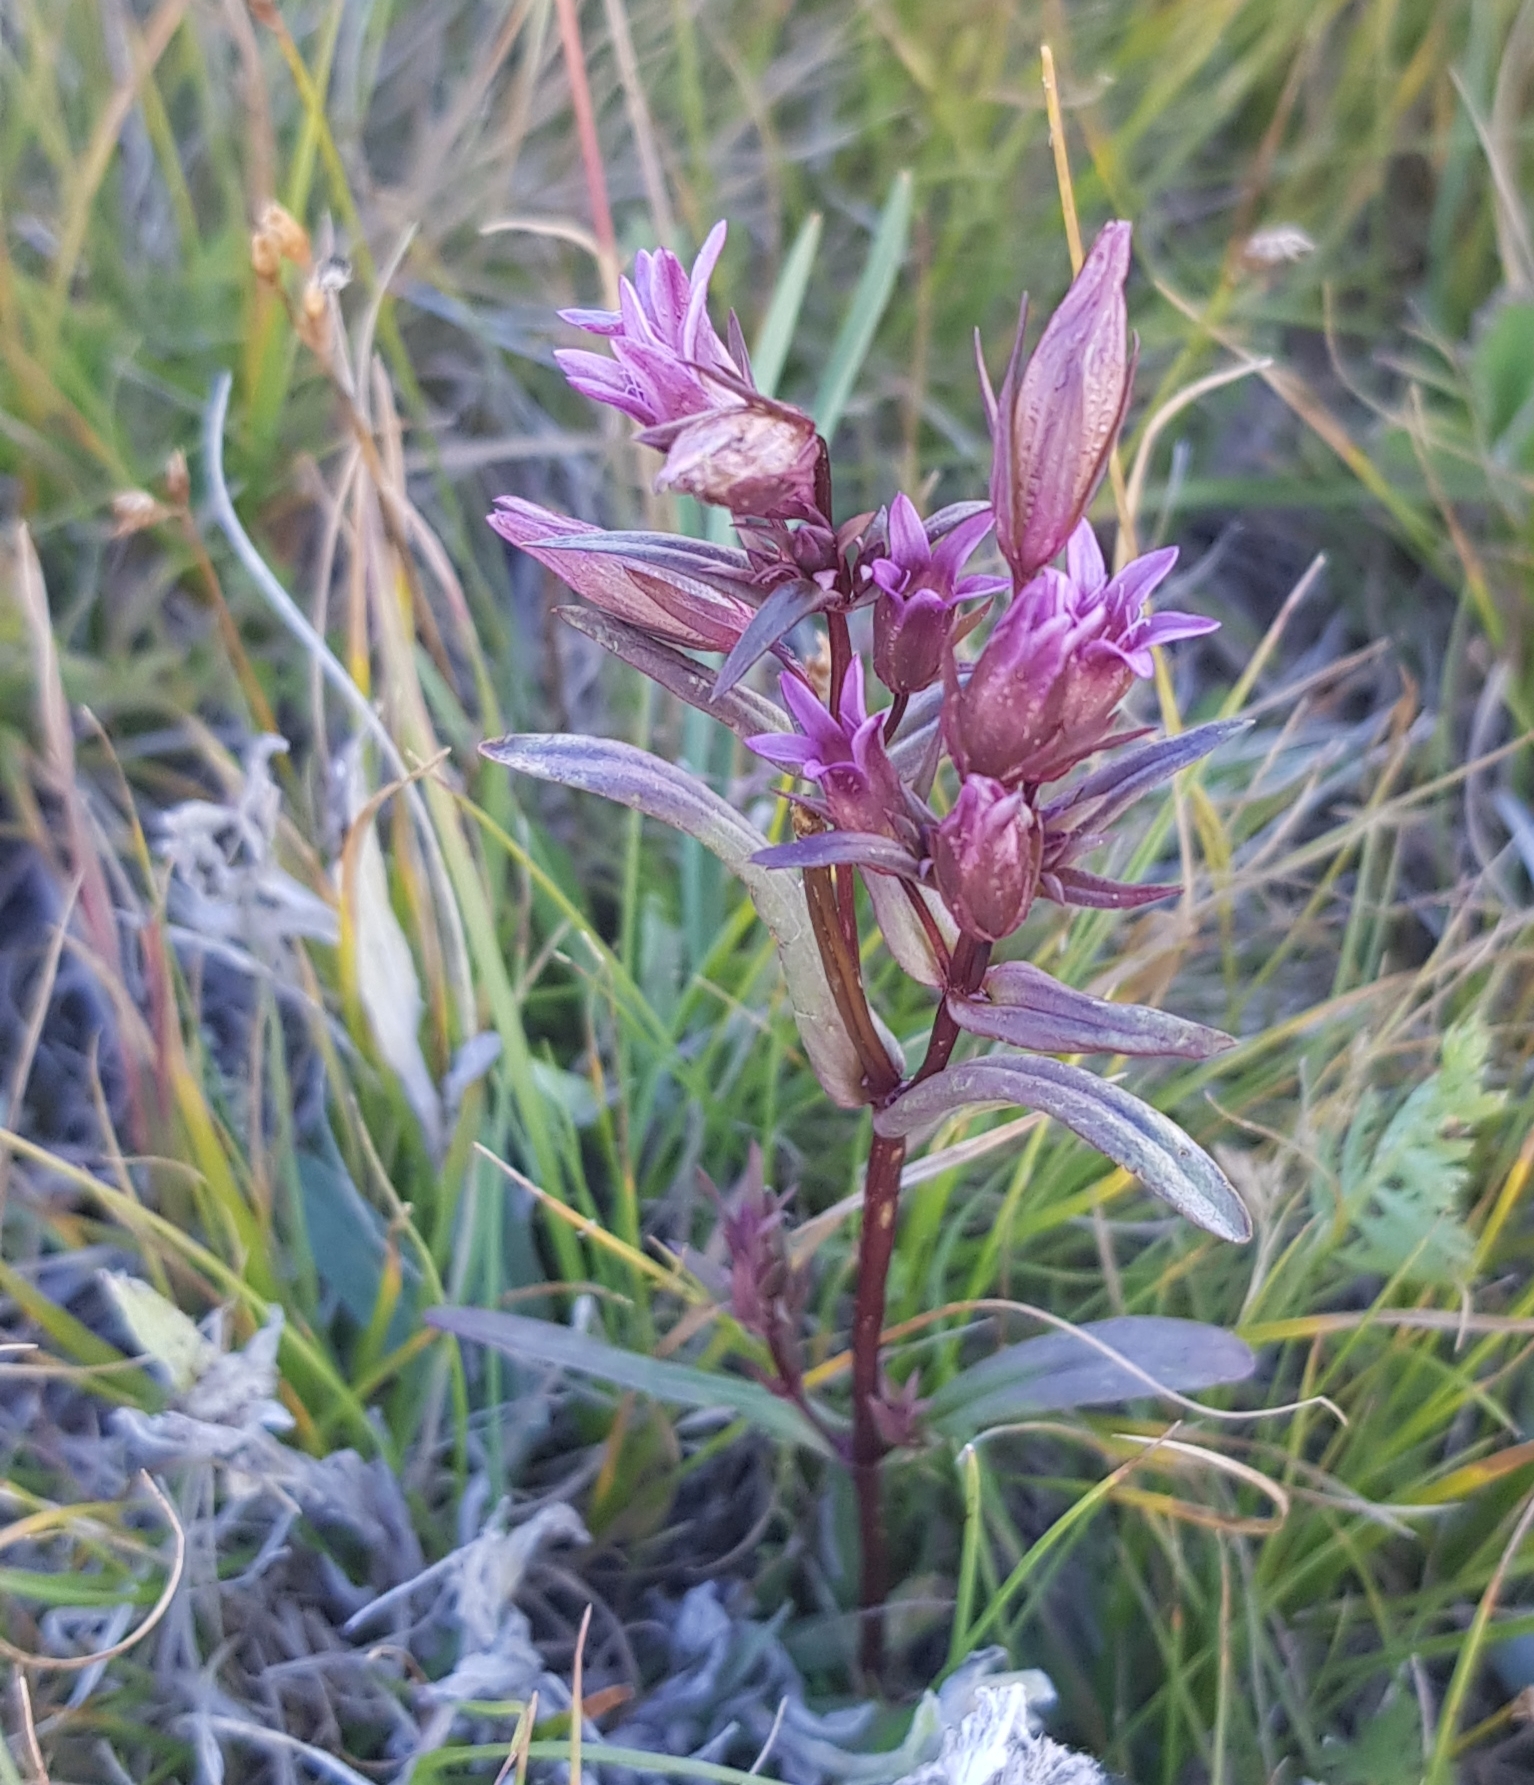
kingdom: Plantae
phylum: Tracheophyta
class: Magnoliopsida
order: Gentianales
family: Gentianaceae
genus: Gentianella
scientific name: Gentianella amarella
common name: Autumn gentian
